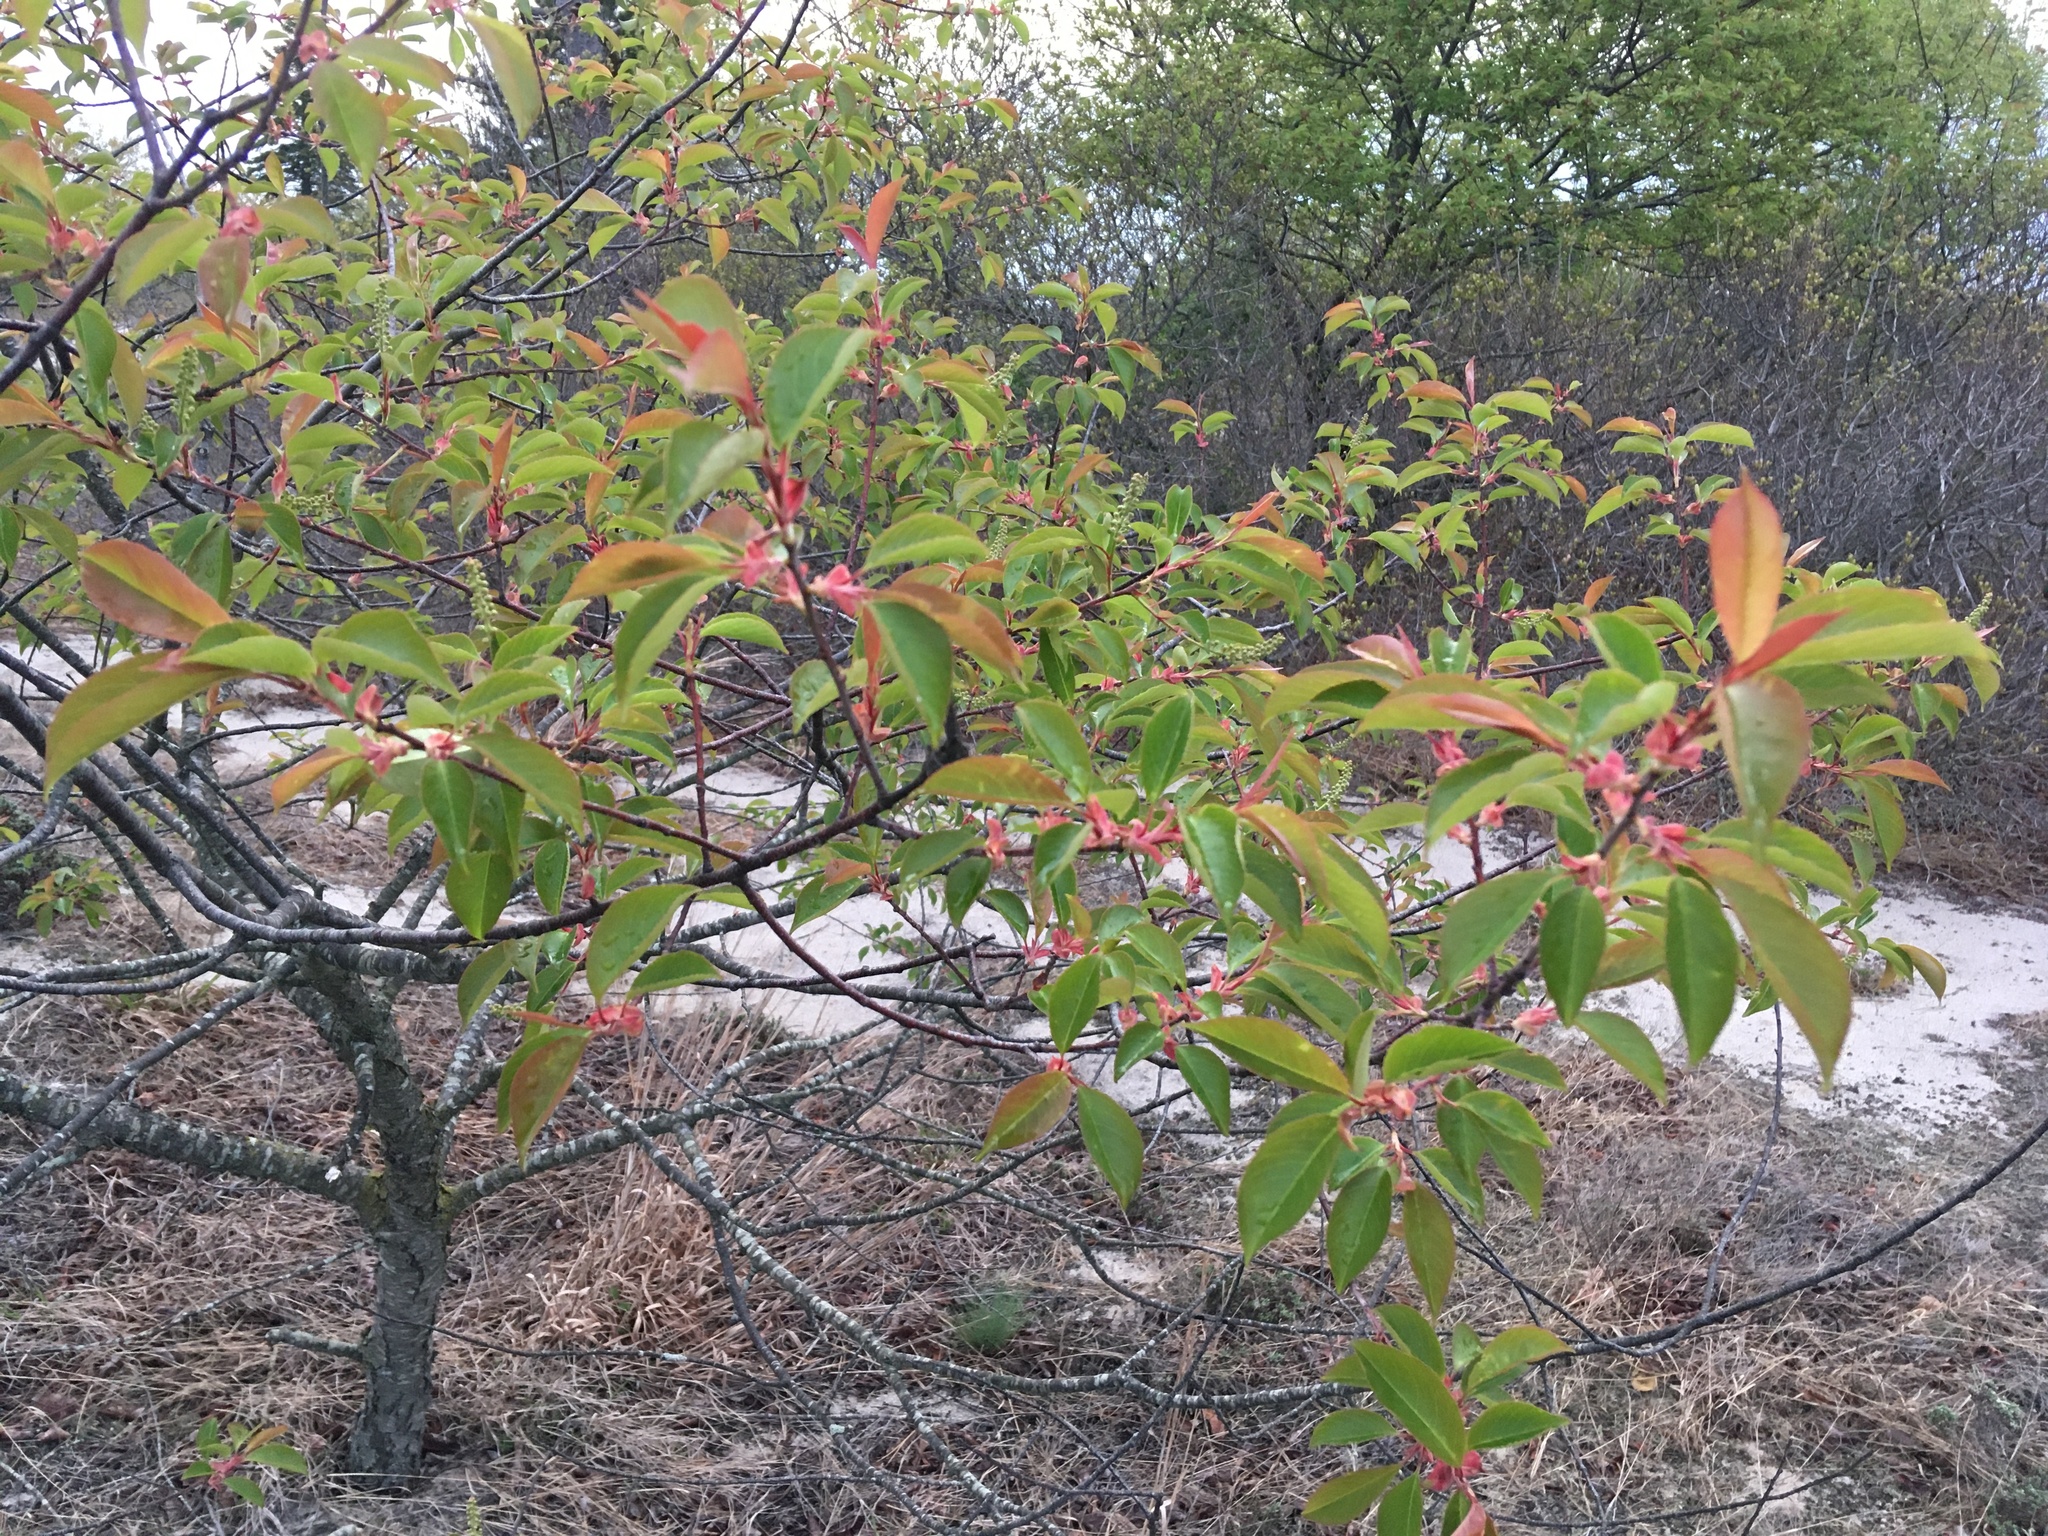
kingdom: Plantae
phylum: Tracheophyta
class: Magnoliopsida
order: Rosales
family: Rosaceae
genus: Prunus
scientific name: Prunus serotina
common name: Black cherry
